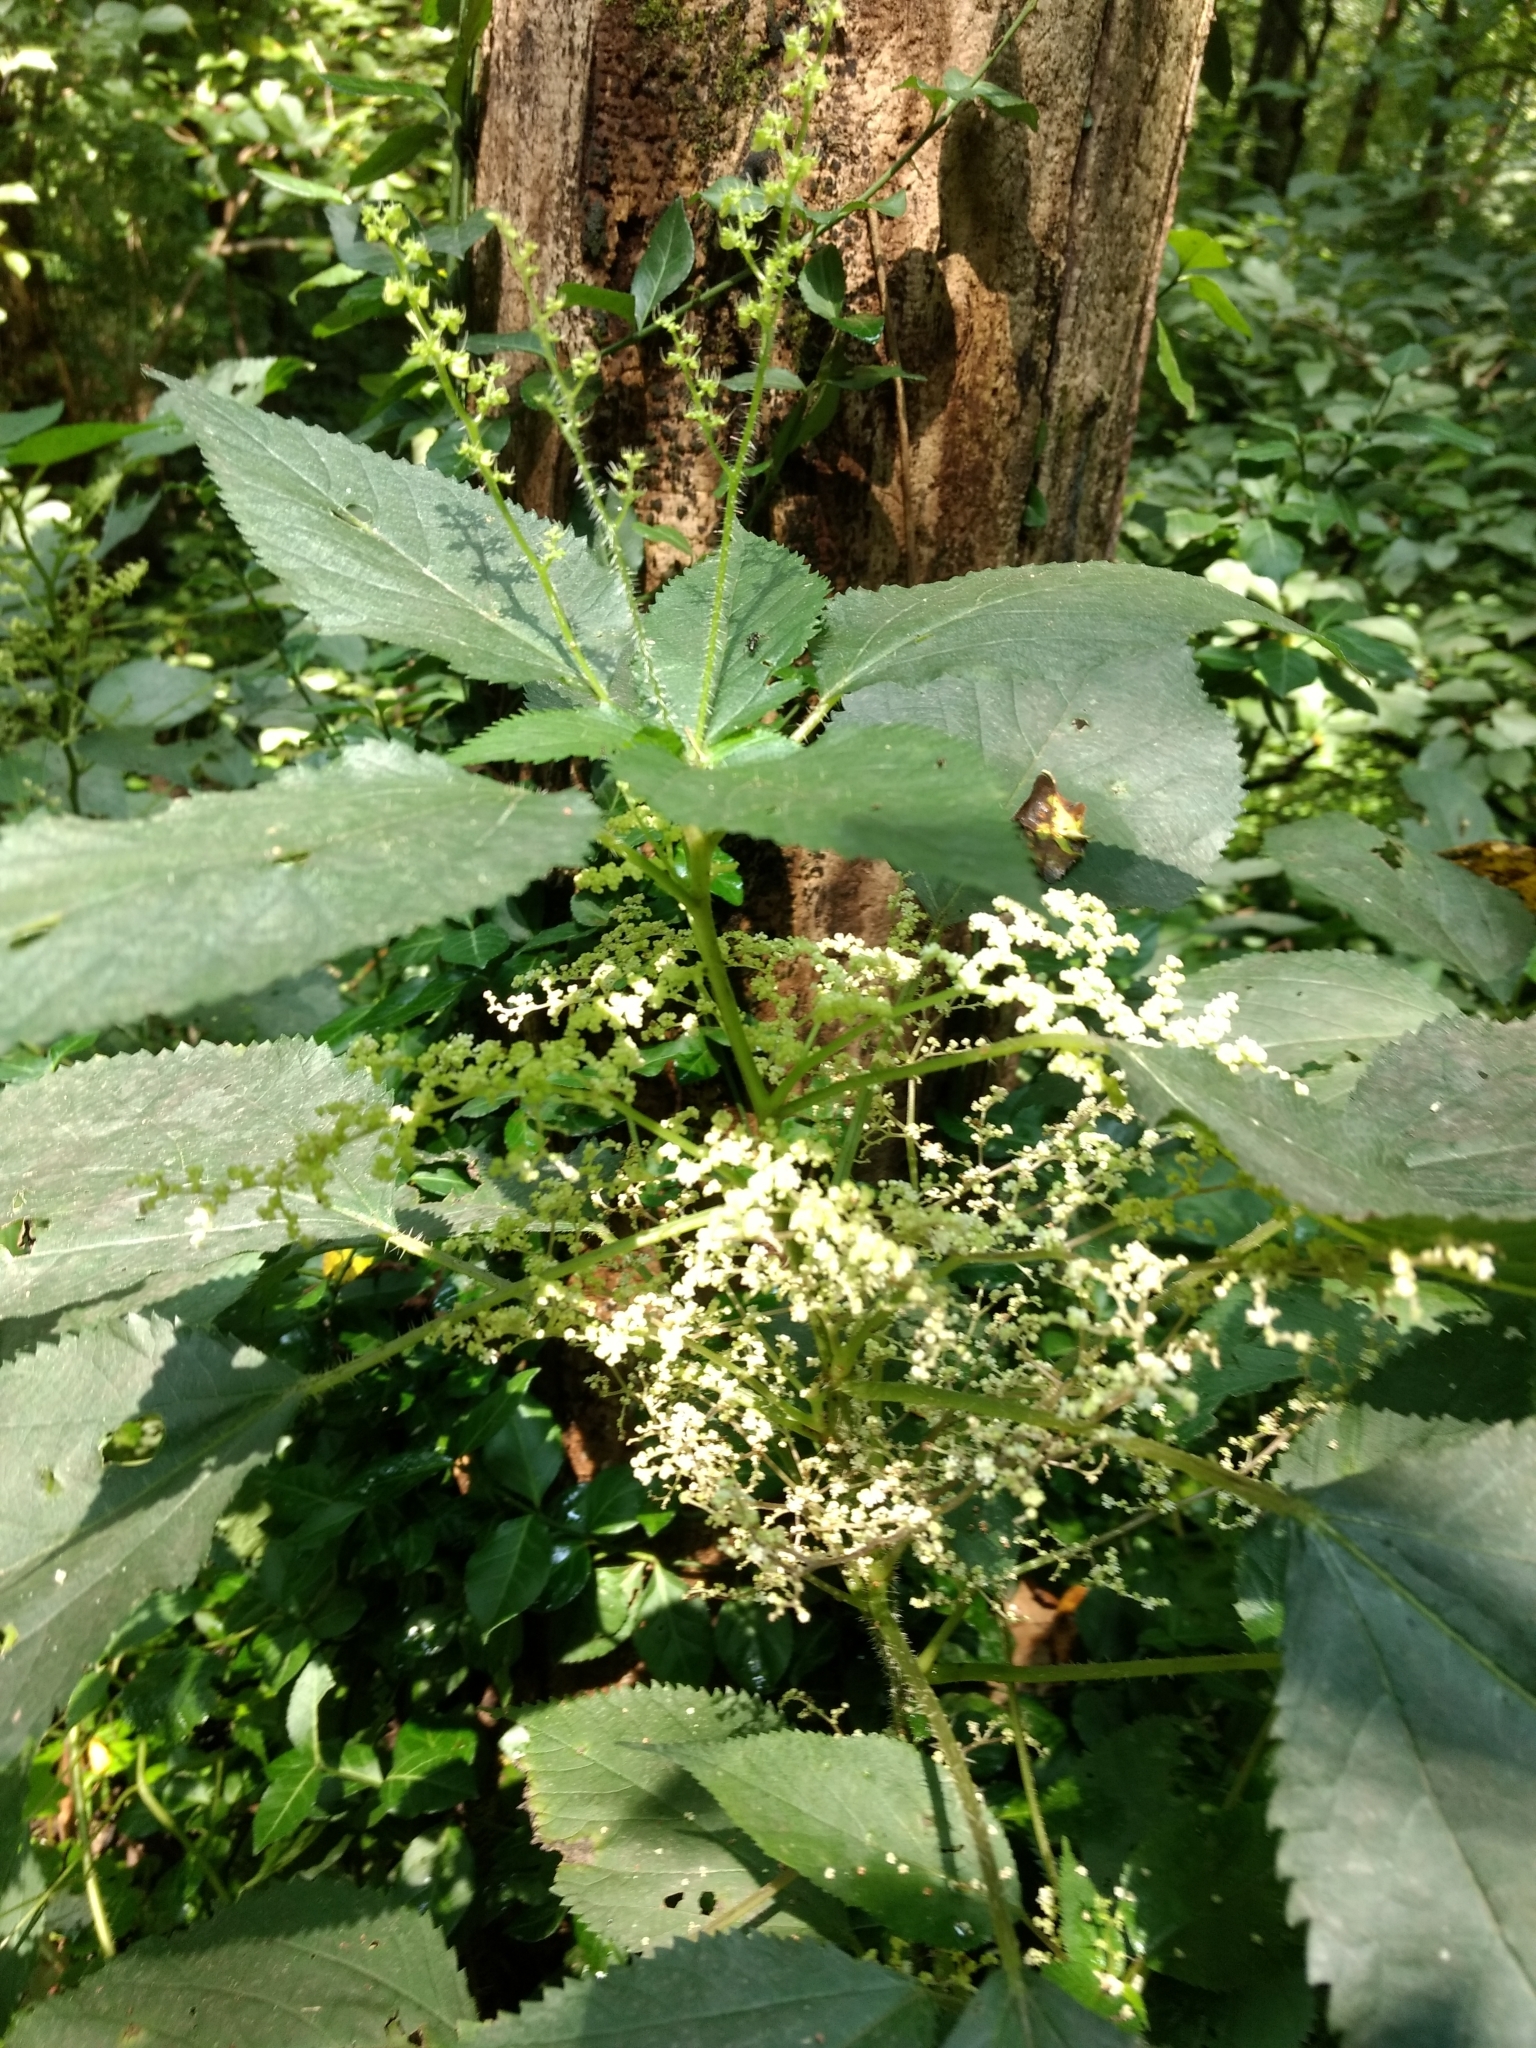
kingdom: Plantae
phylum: Tracheophyta
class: Magnoliopsida
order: Rosales
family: Urticaceae
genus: Laportea
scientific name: Laportea canadensis
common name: Canada nettle
